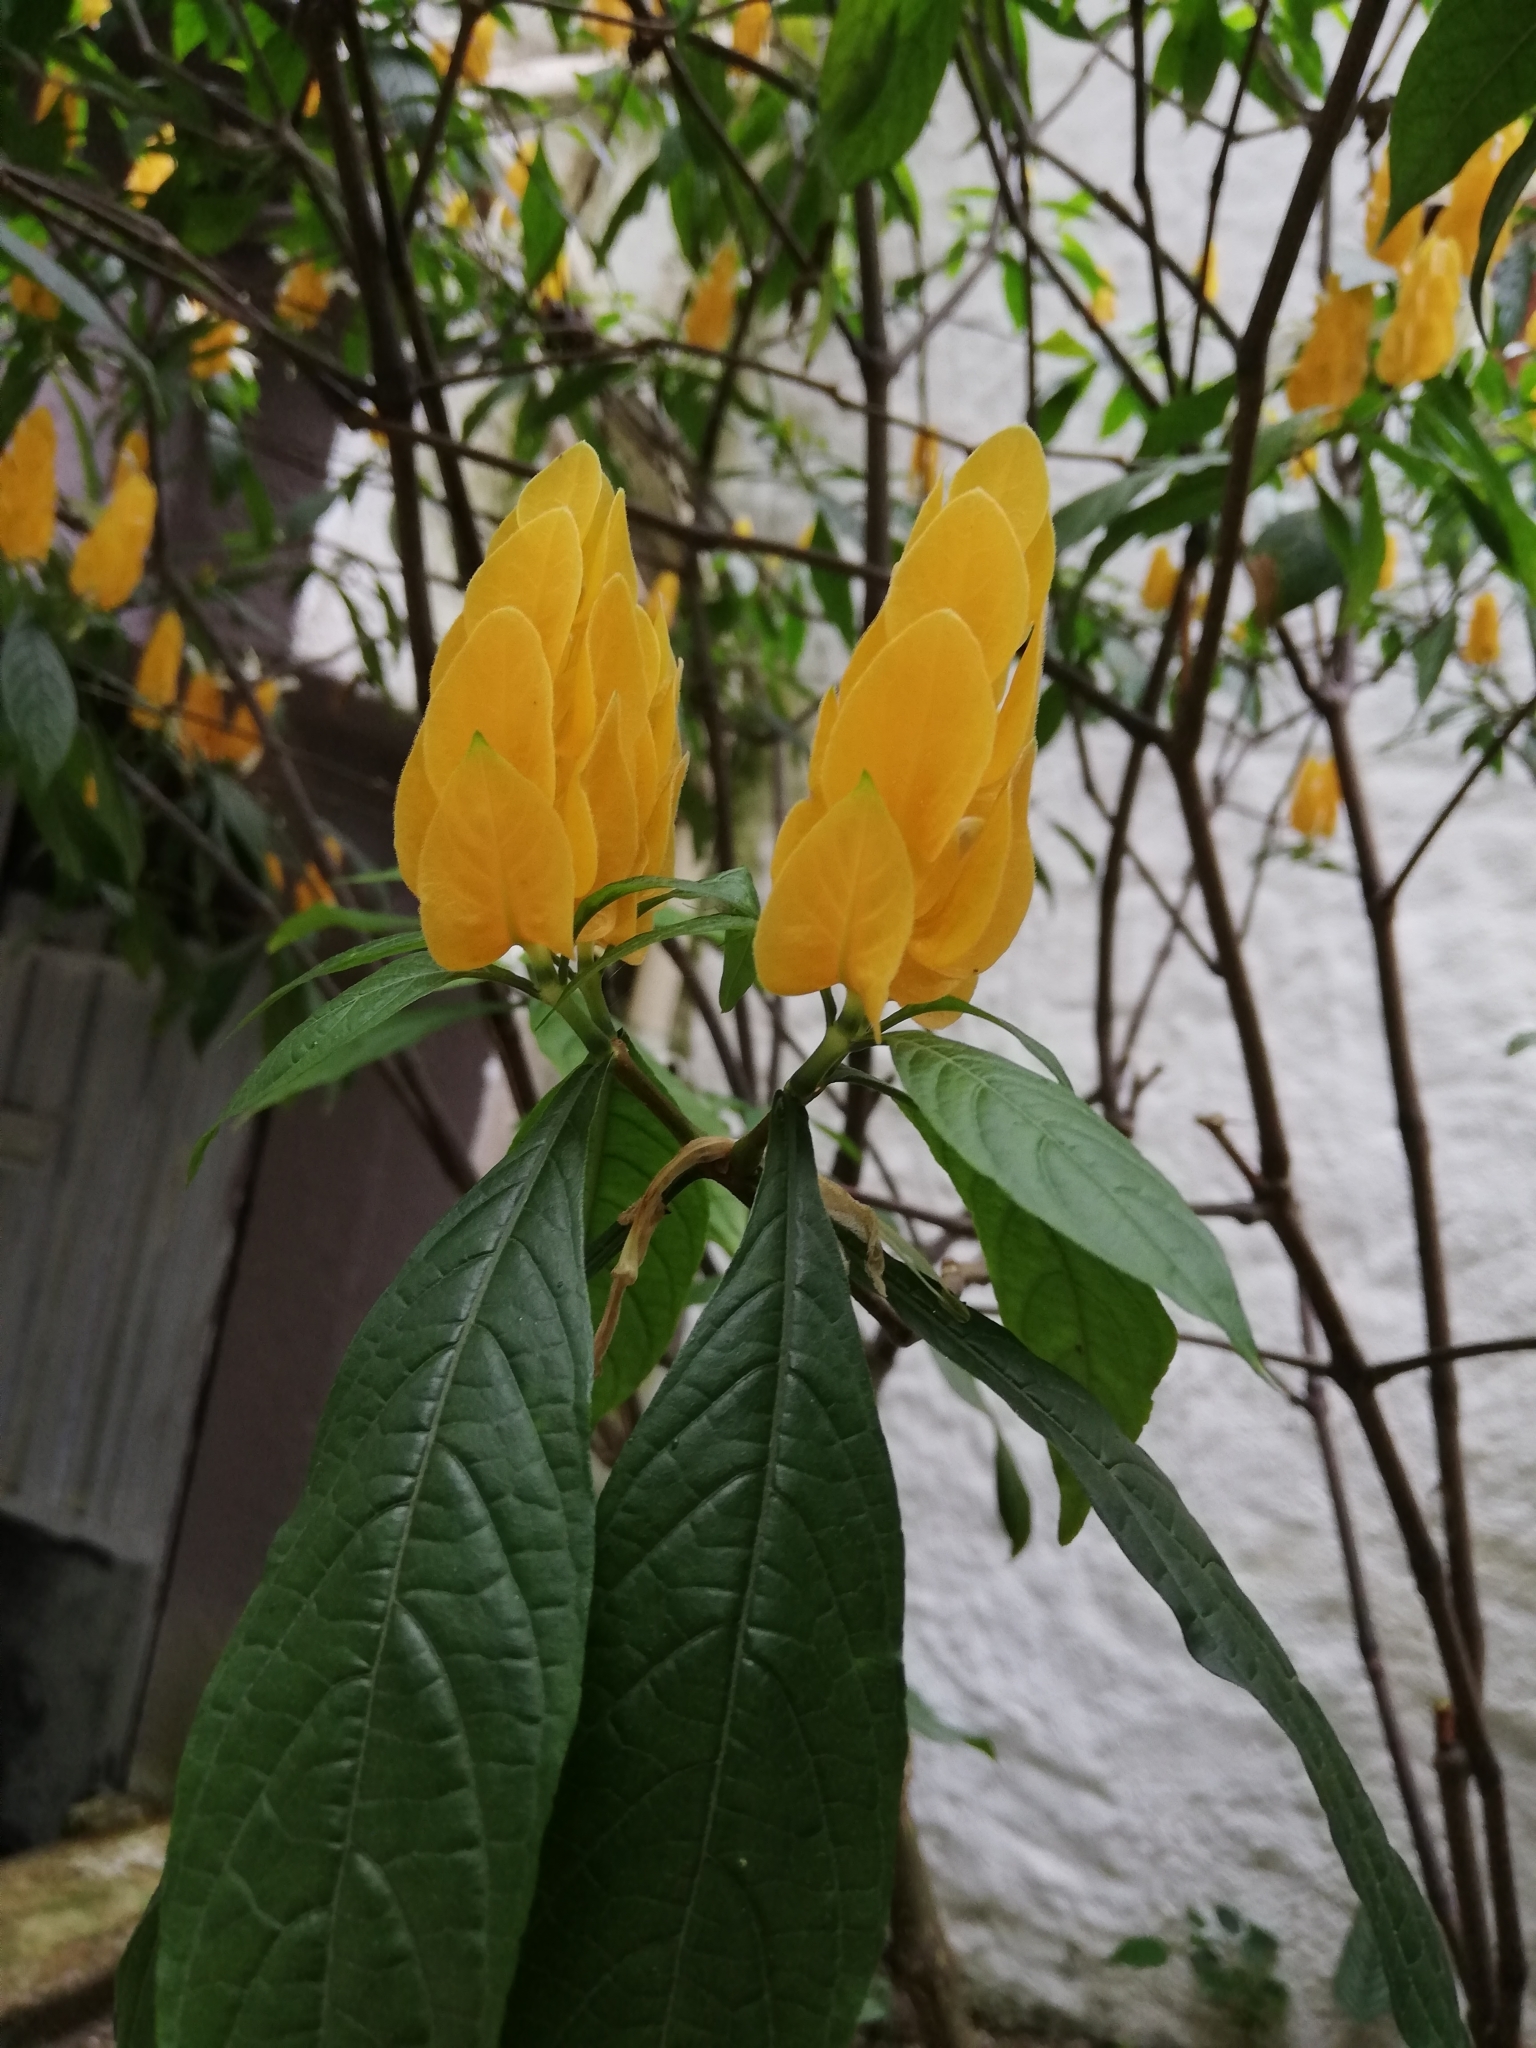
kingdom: Plantae
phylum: Tracheophyta
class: Magnoliopsida
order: Lamiales
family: Acanthaceae
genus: Pachystachys
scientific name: Pachystachys lutea
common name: Golden shrimp-plant
